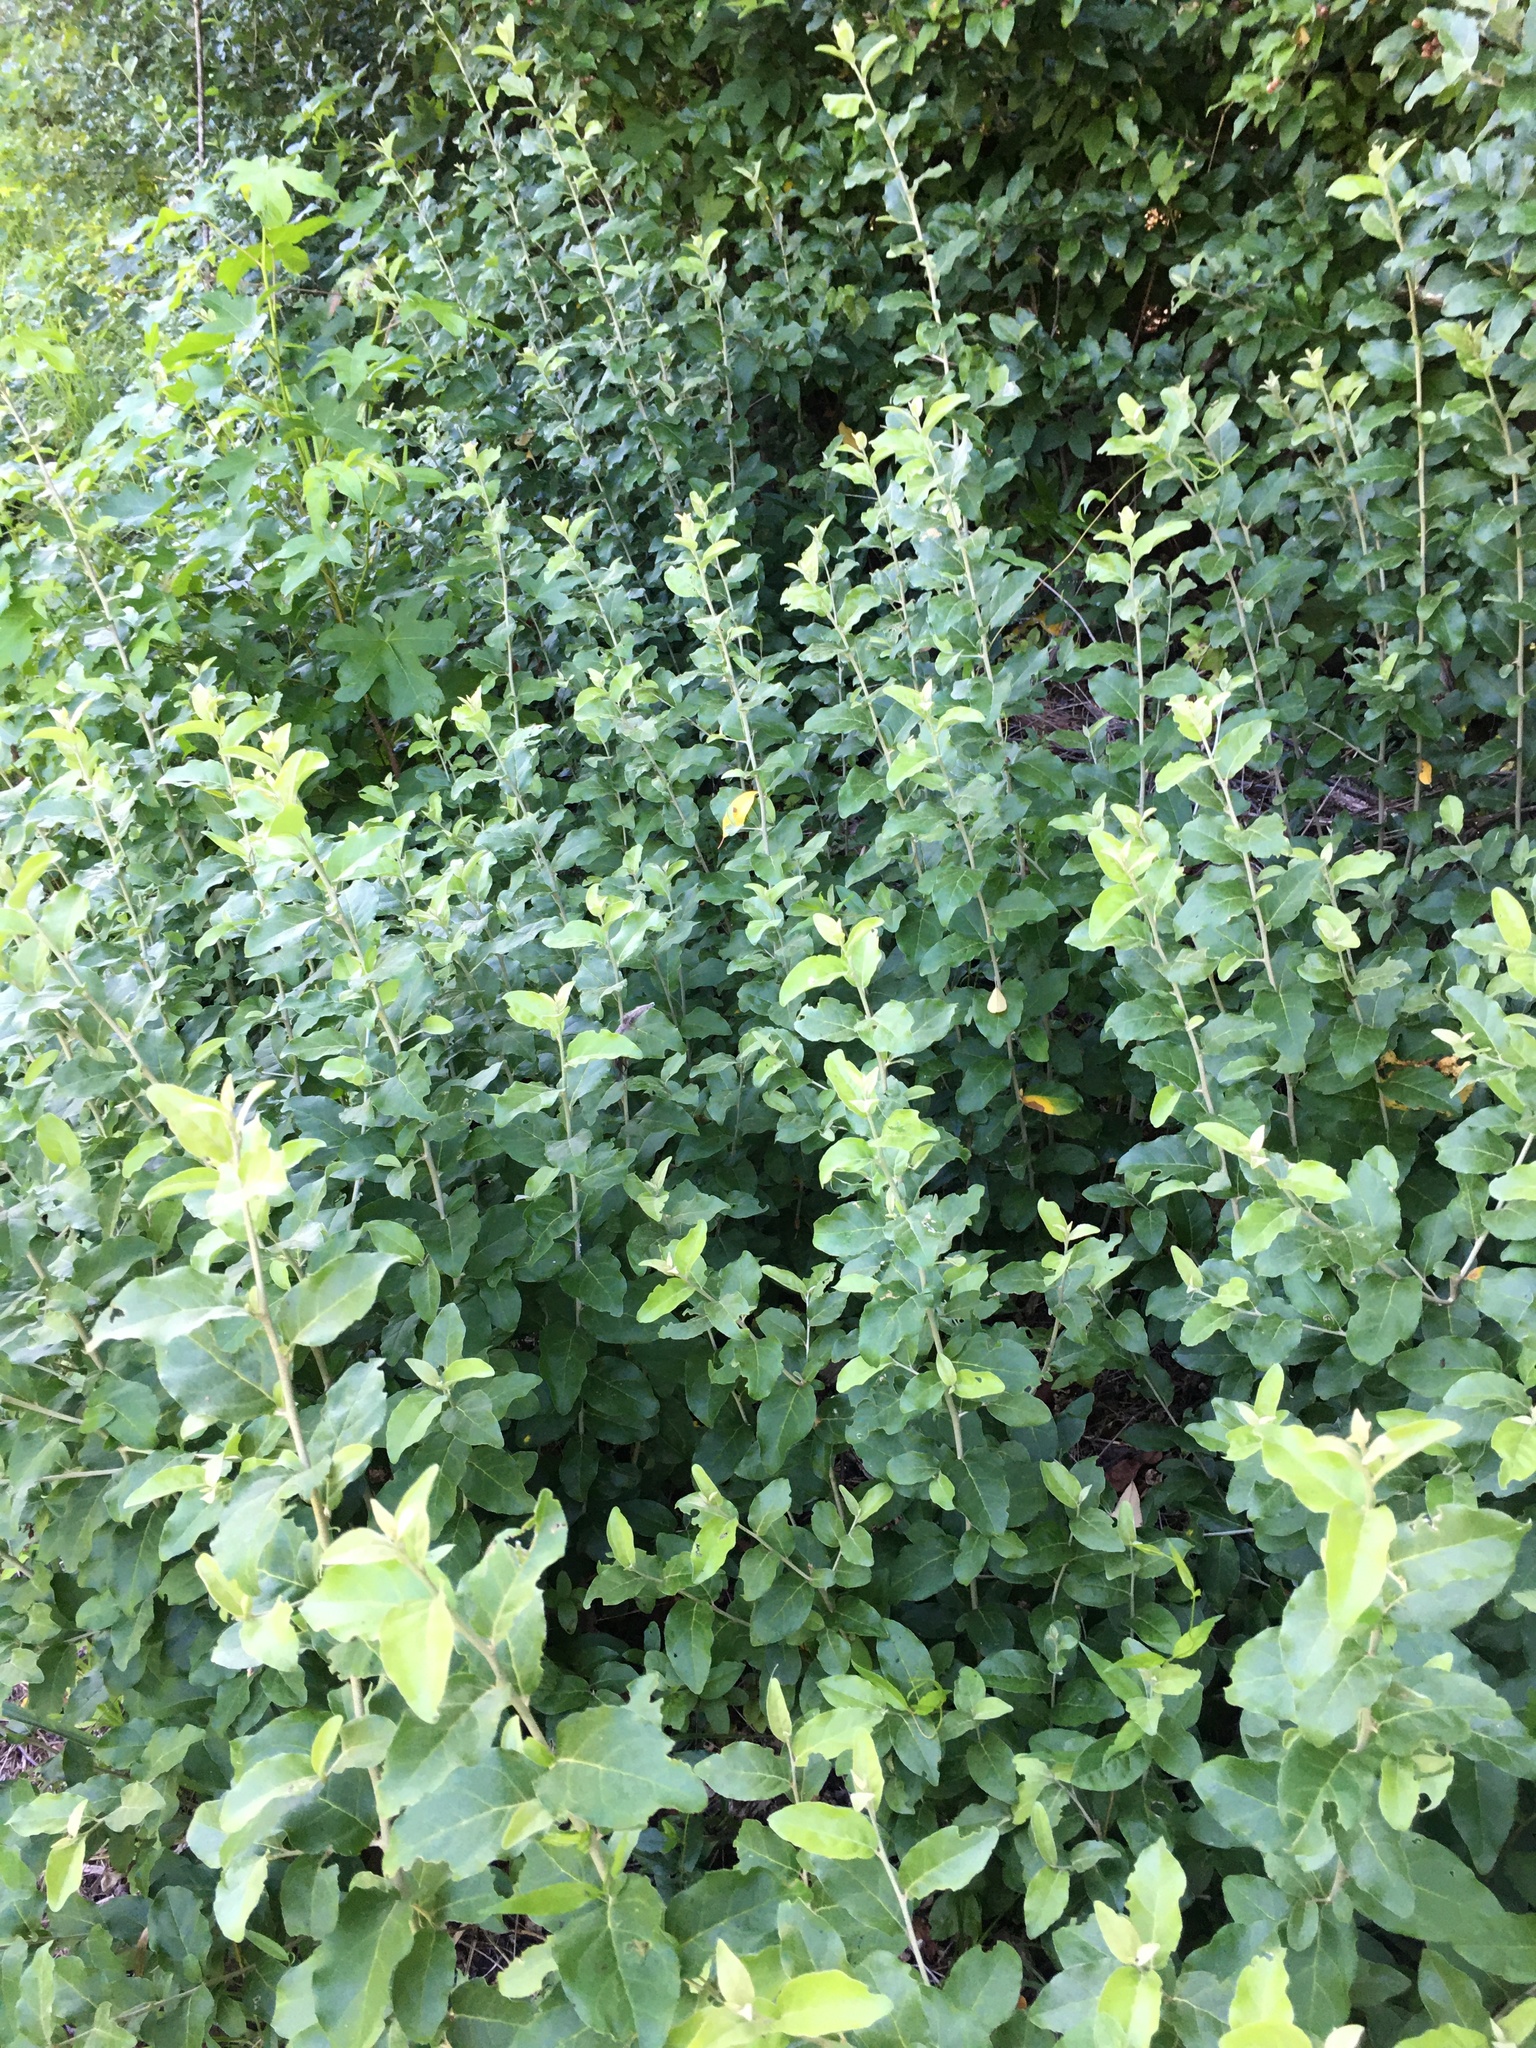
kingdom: Plantae
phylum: Tracheophyta
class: Magnoliopsida
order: Rosales
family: Elaeagnaceae
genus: Elaeagnus
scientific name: Elaeagnus umbellata
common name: Autumn olive
